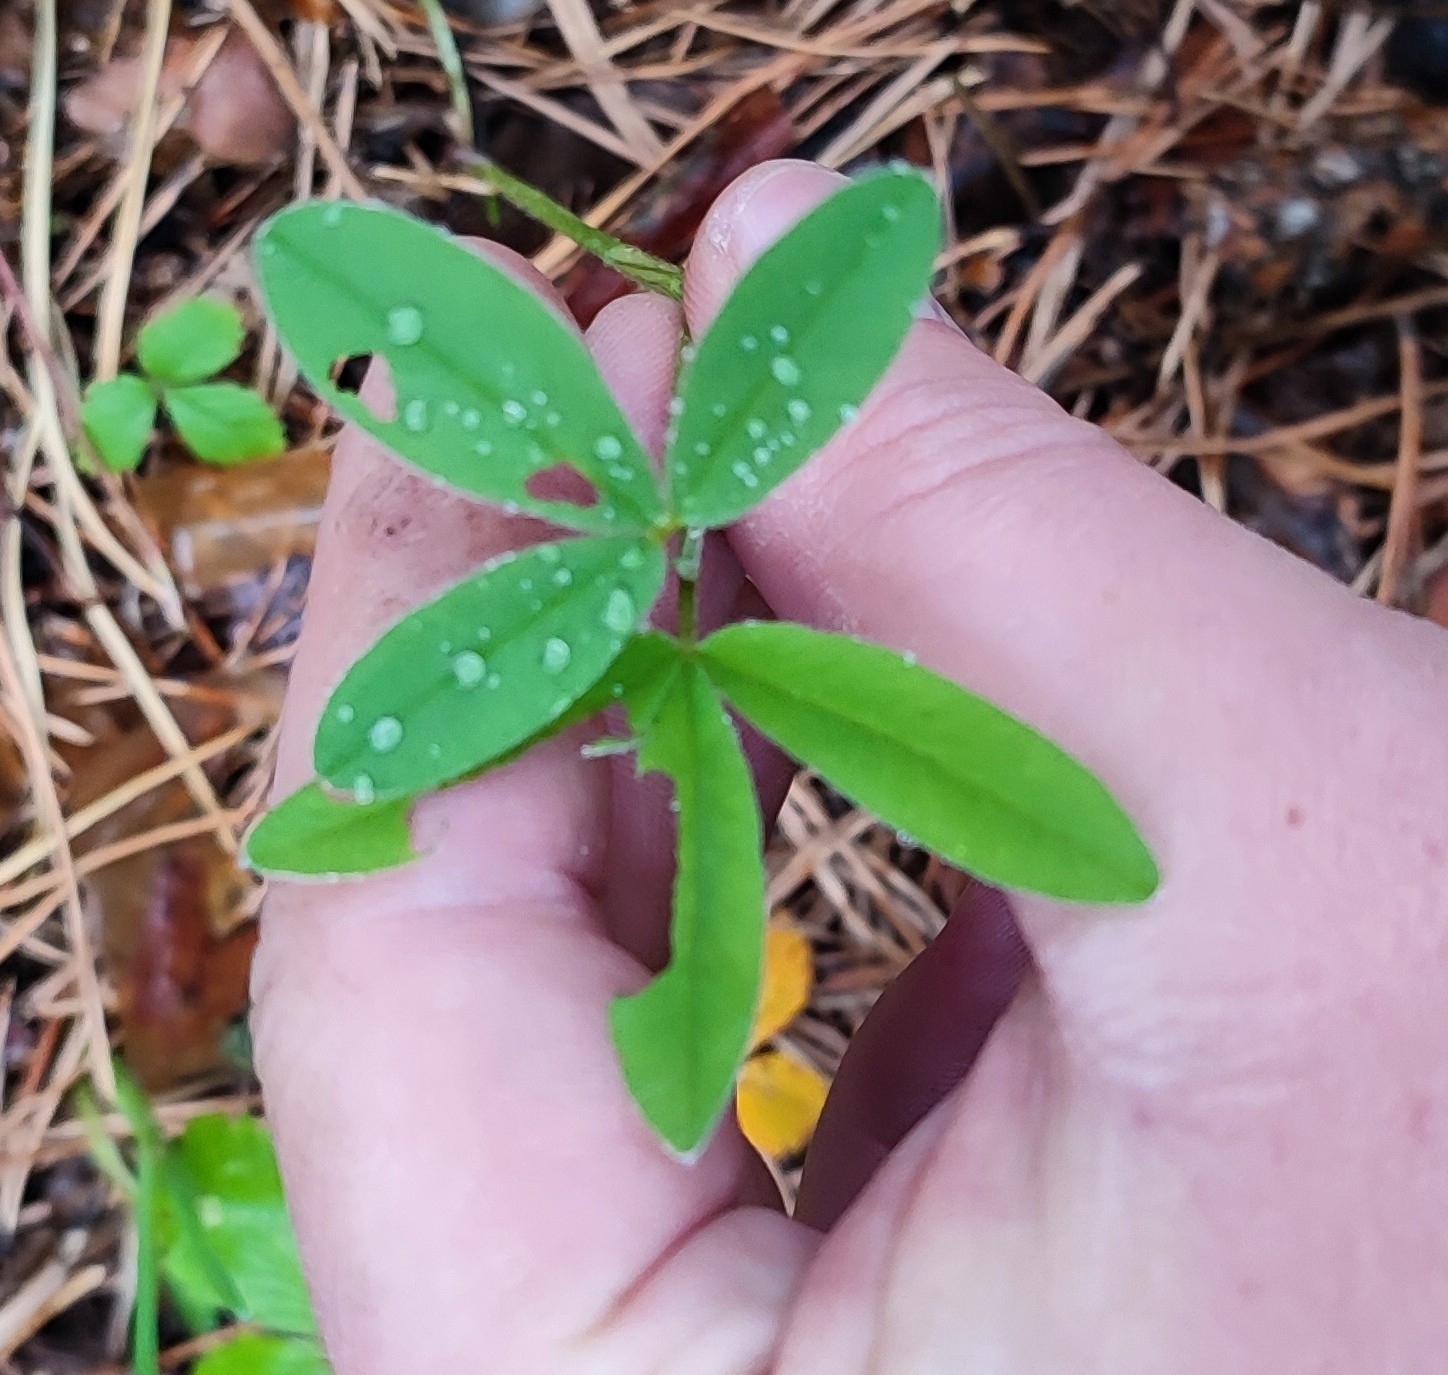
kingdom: Plantae
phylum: Tracheophyta
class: Magnoliopsida
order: Fabales
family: Fabaceae
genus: Trifolium
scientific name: Trifolium medium
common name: Zigzag clover
